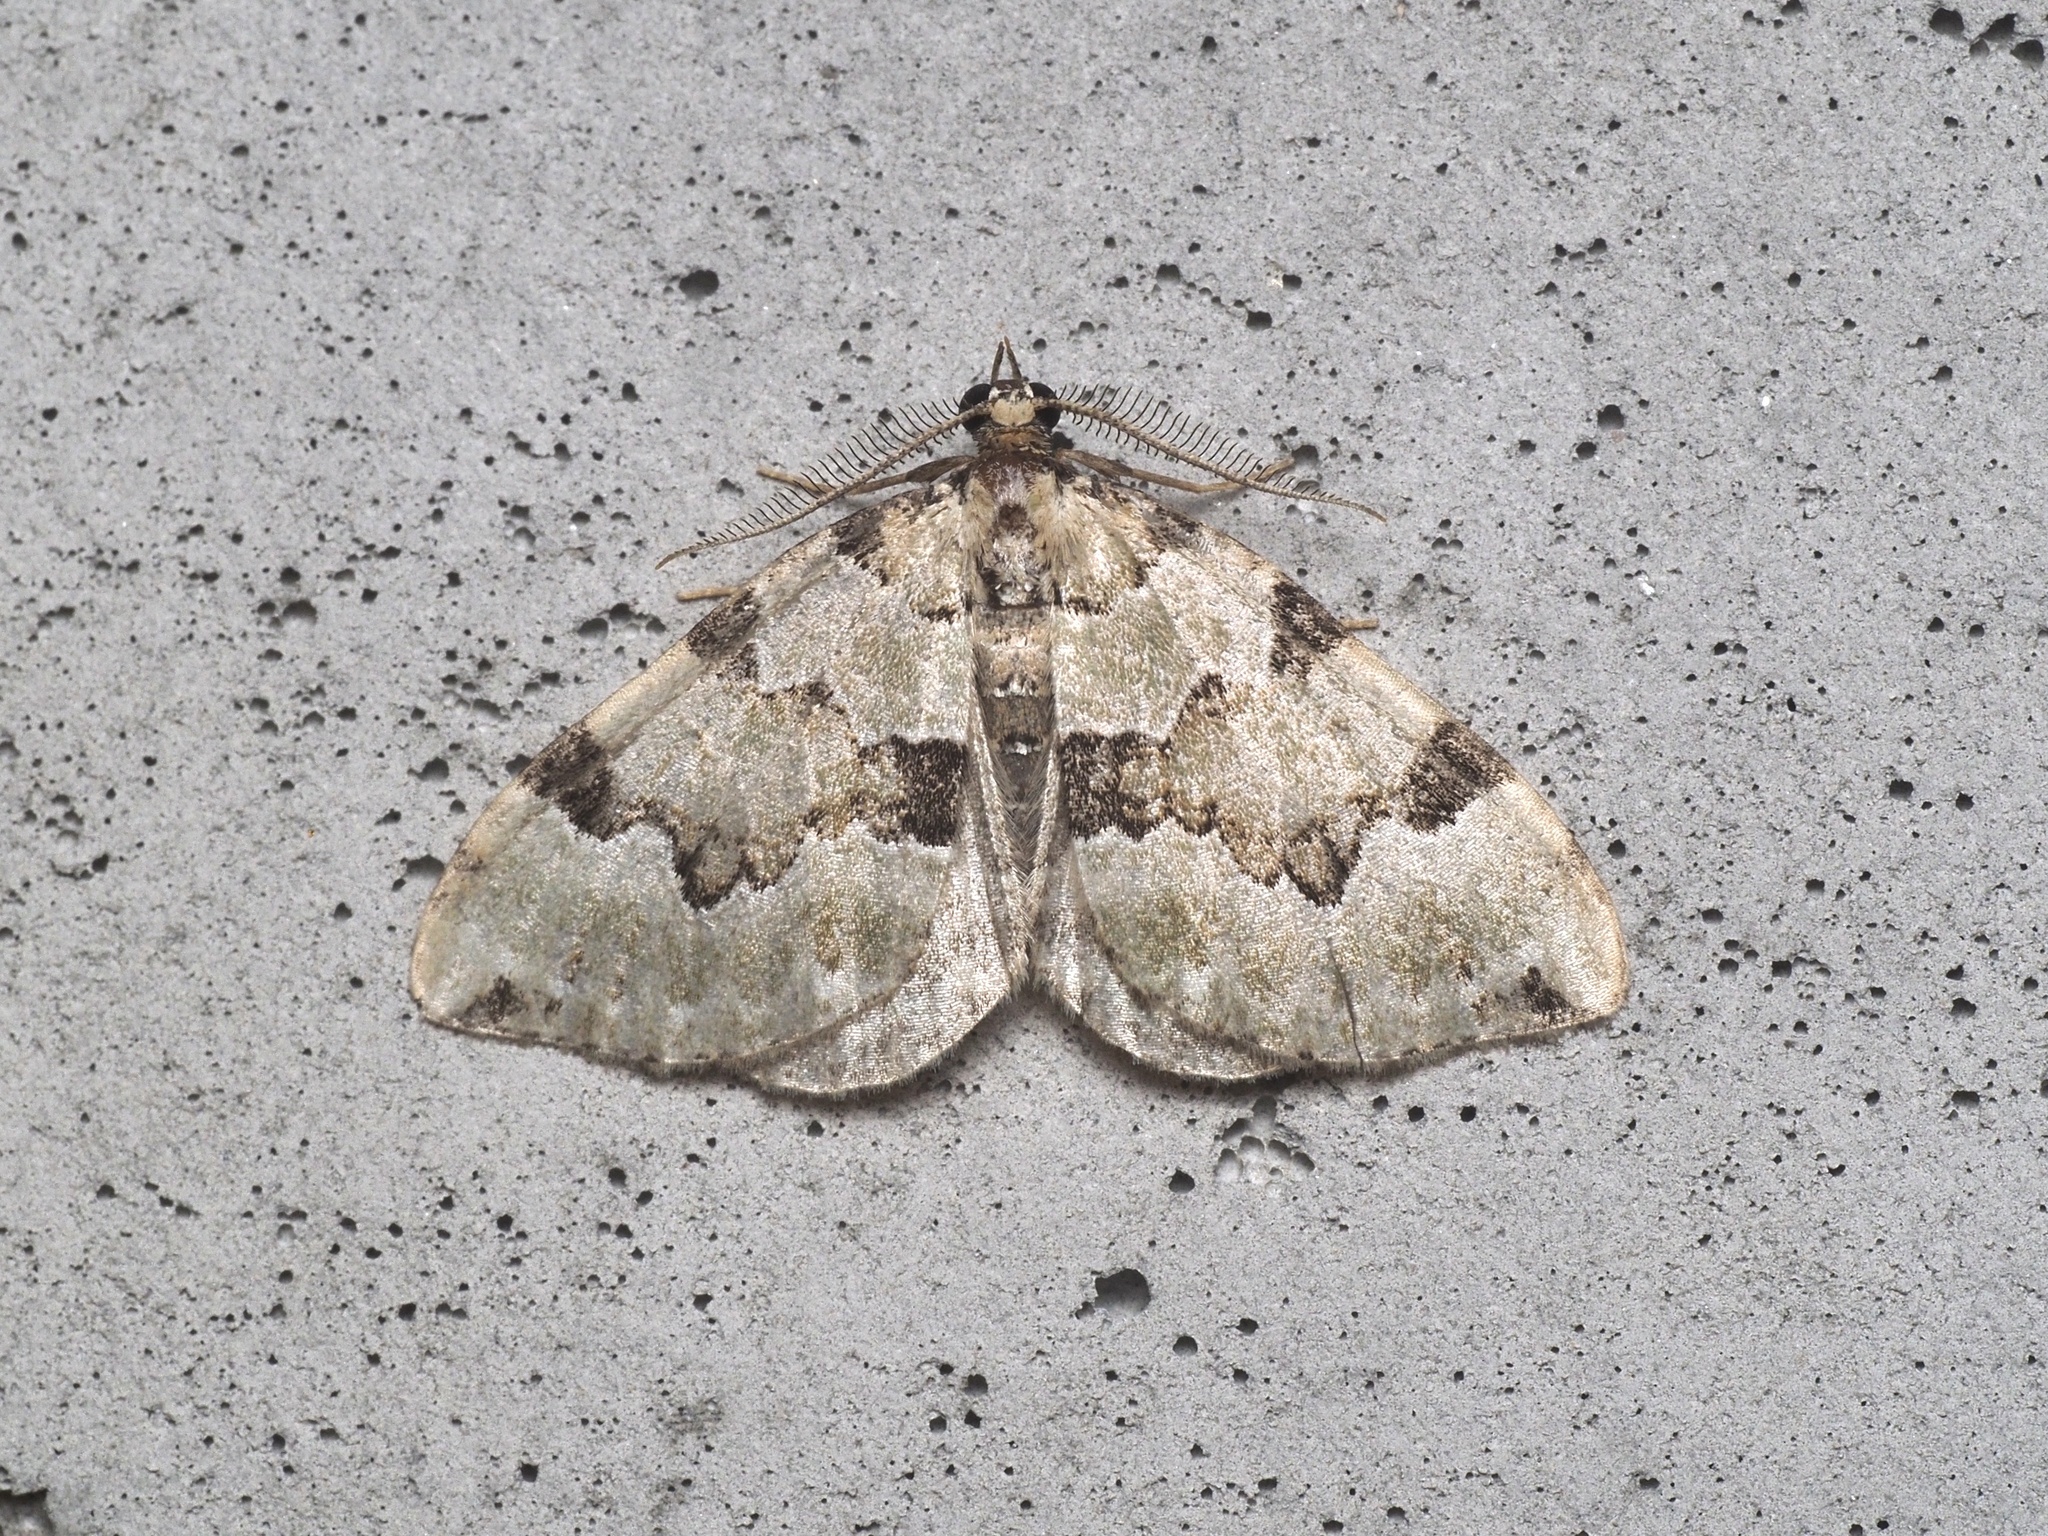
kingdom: Animalia
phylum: Arthropoda
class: Insecta
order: Lepidoptera
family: Geometridae
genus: Colostygia
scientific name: Colostygia pectinataria
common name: Green carpet
